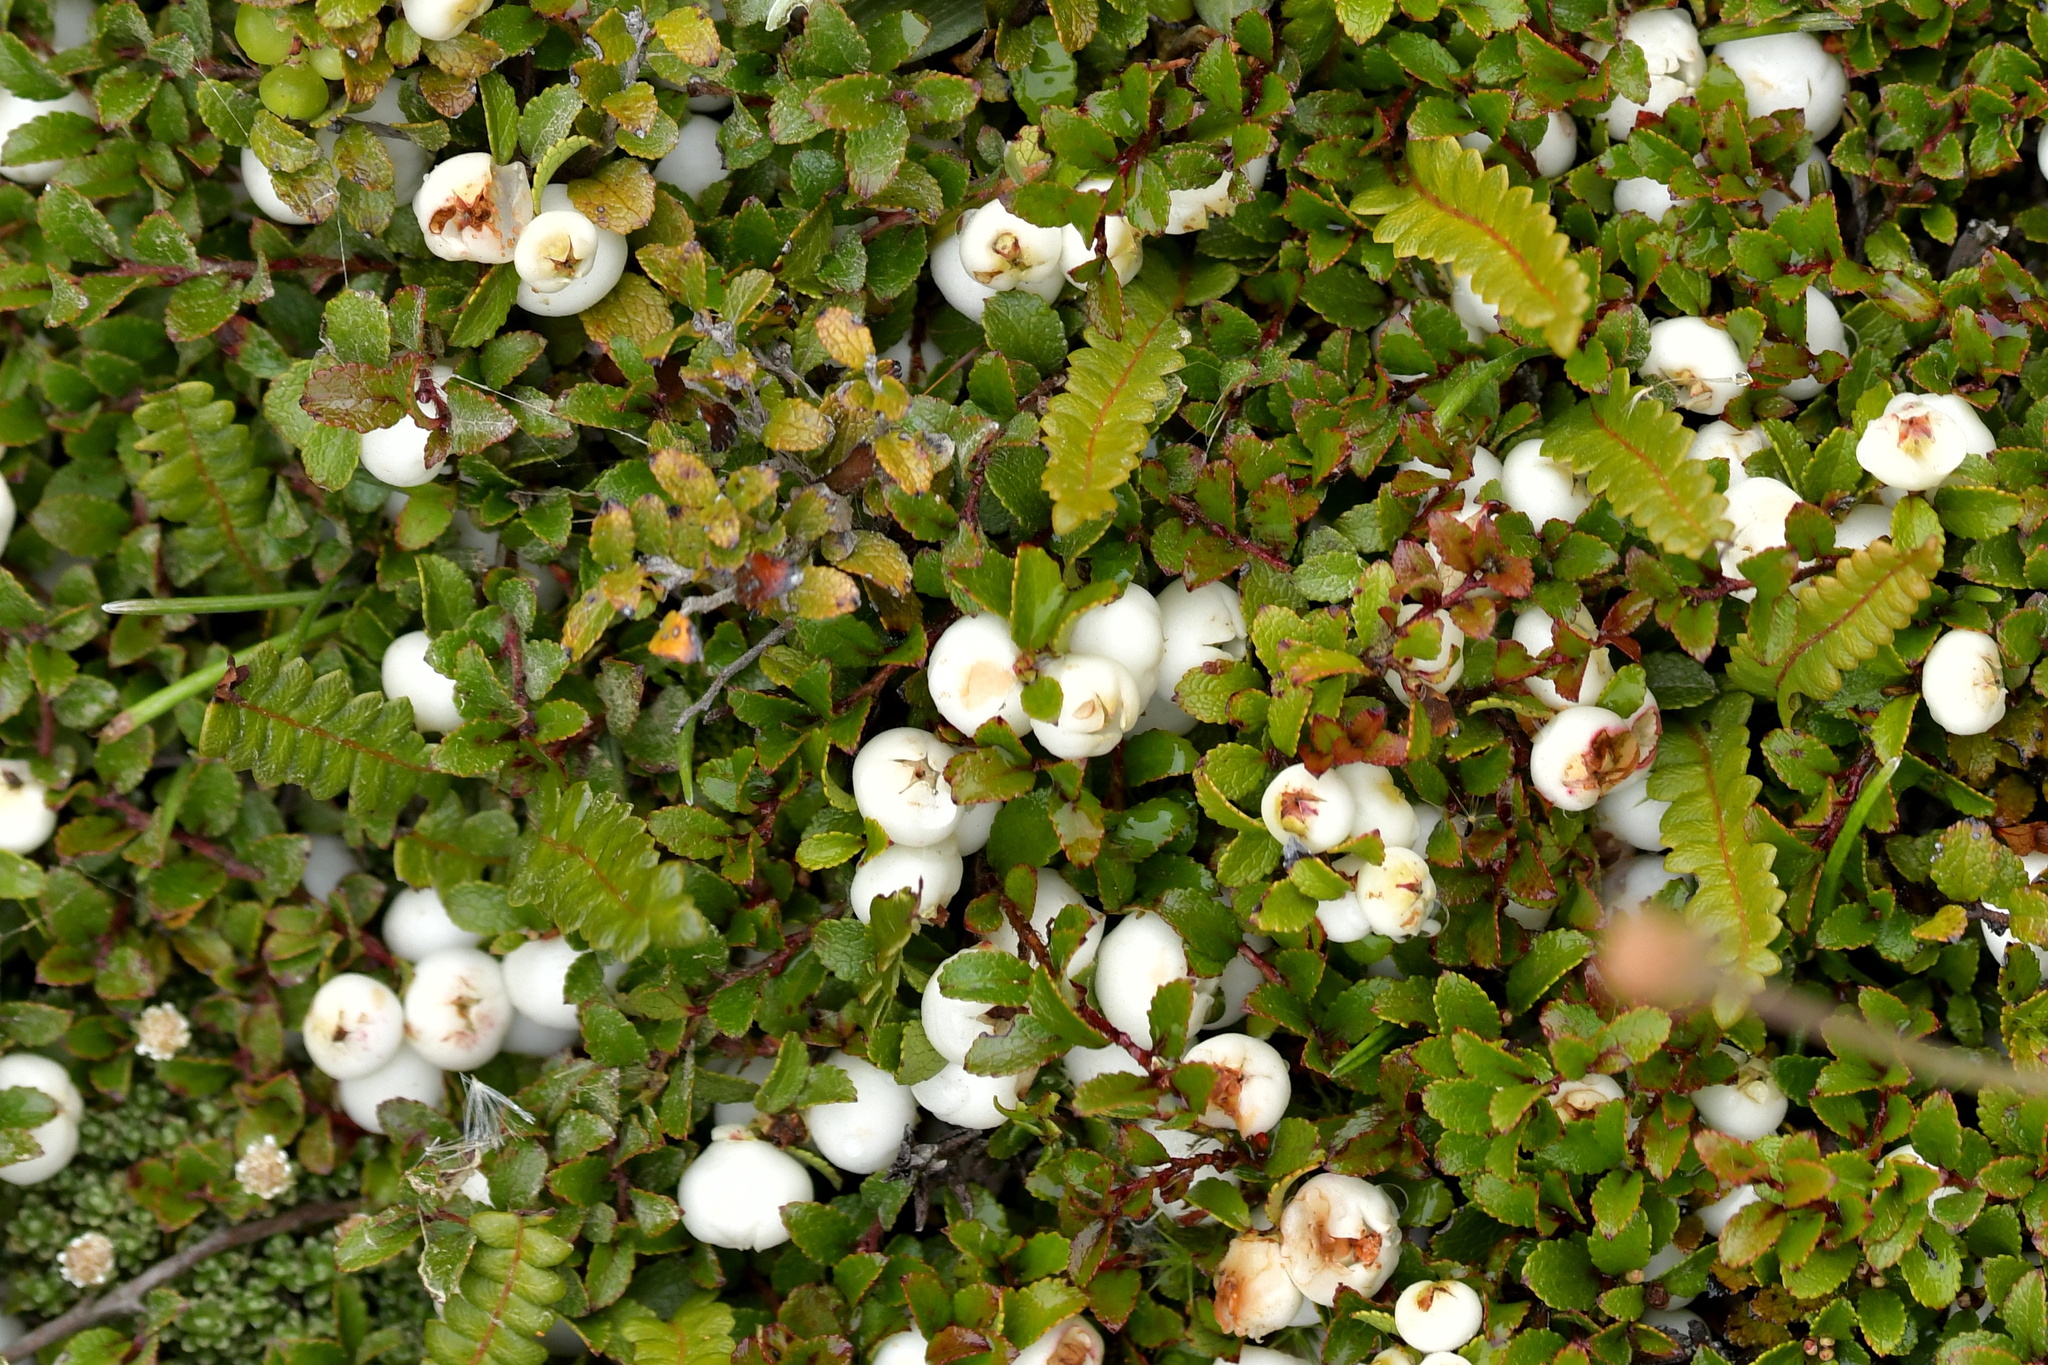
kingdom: Plantae
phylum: Tracheophyta
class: Magnoliopsida
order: Ericales
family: Ericaceae
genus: Gaultheria
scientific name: Gaultheria depressa
